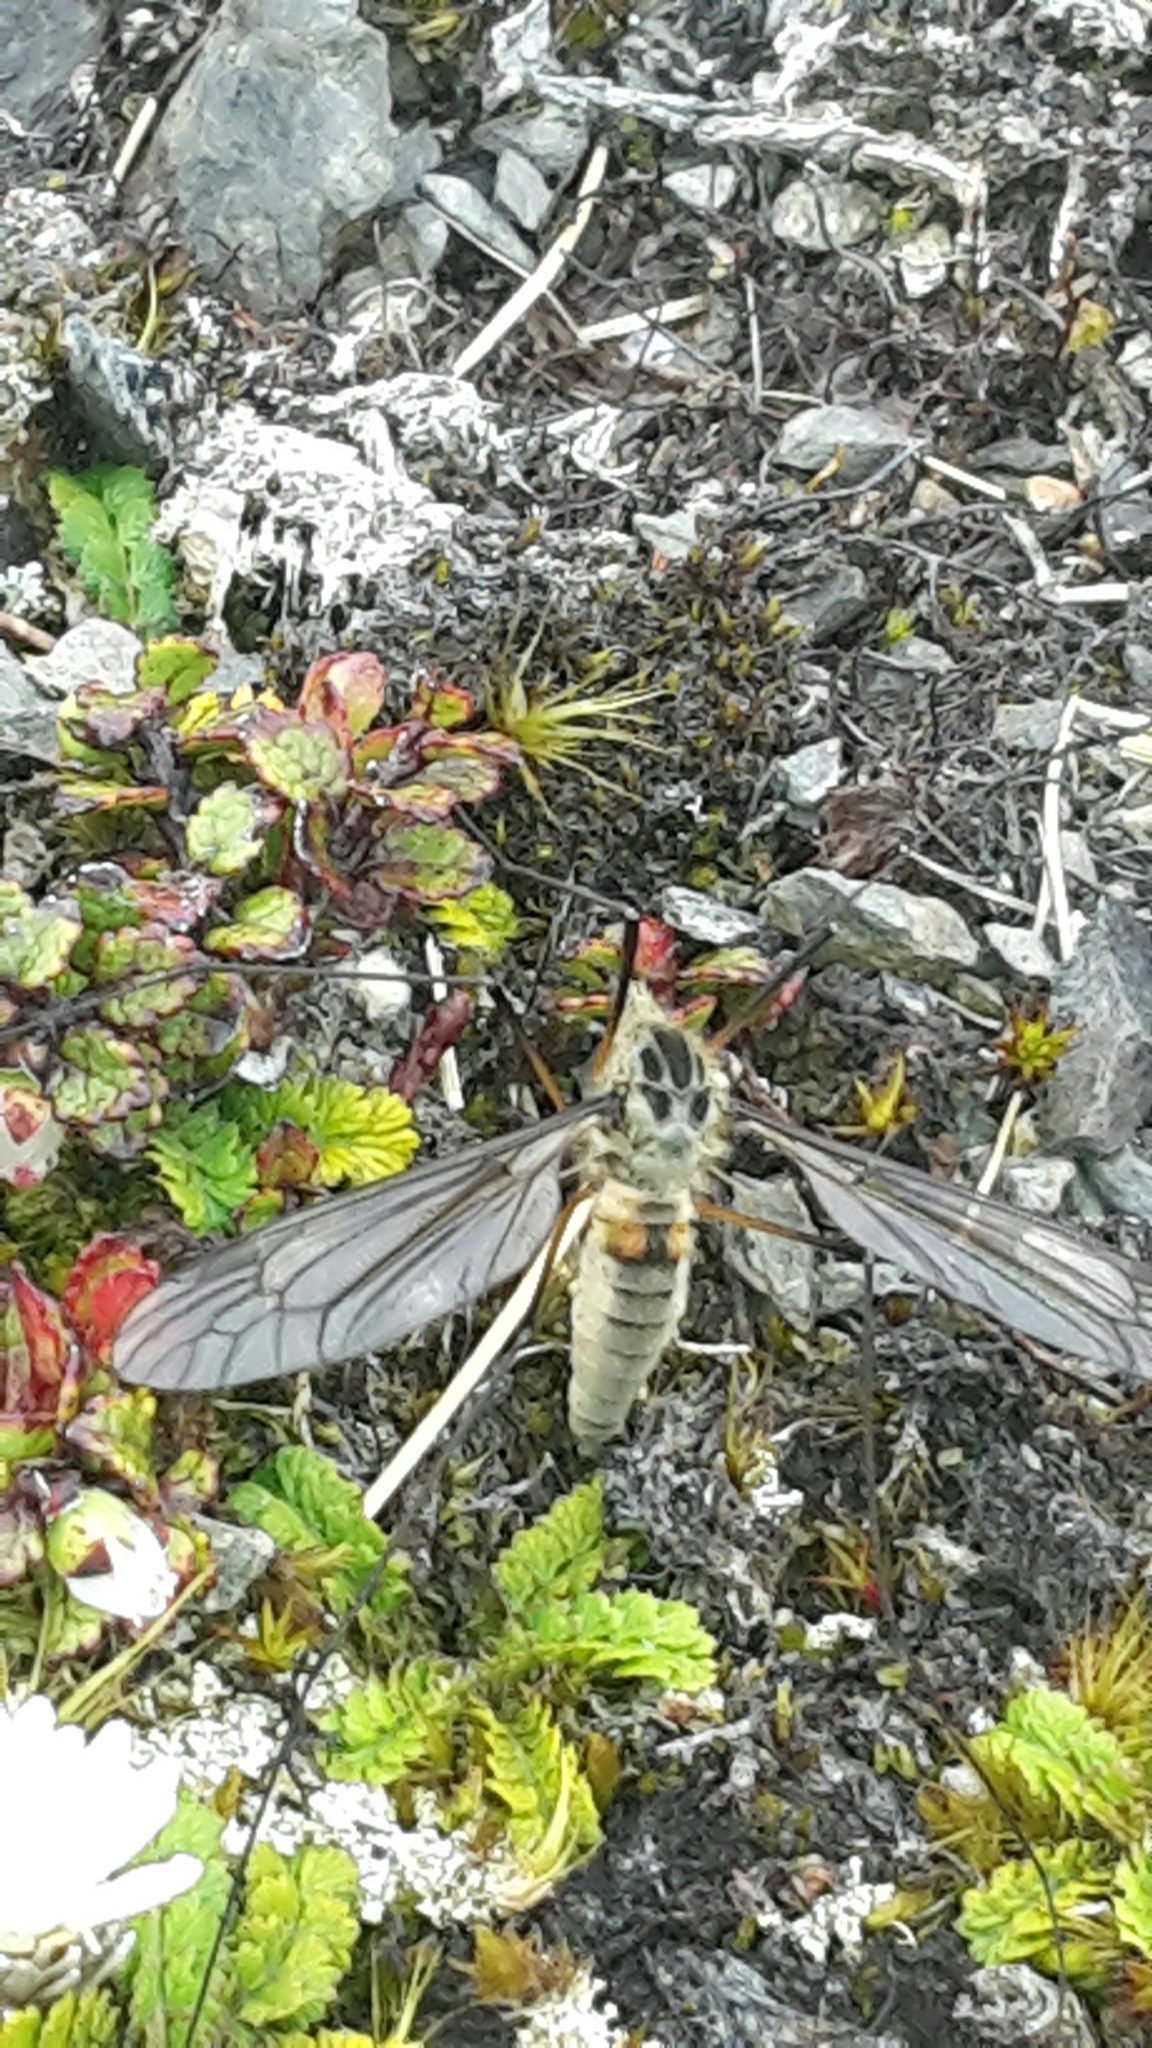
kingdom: Animalia
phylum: Arthropoda
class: Insecta
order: Diptera
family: Tipulidae
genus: Leptotarsus
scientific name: Leptotarsus montanus
